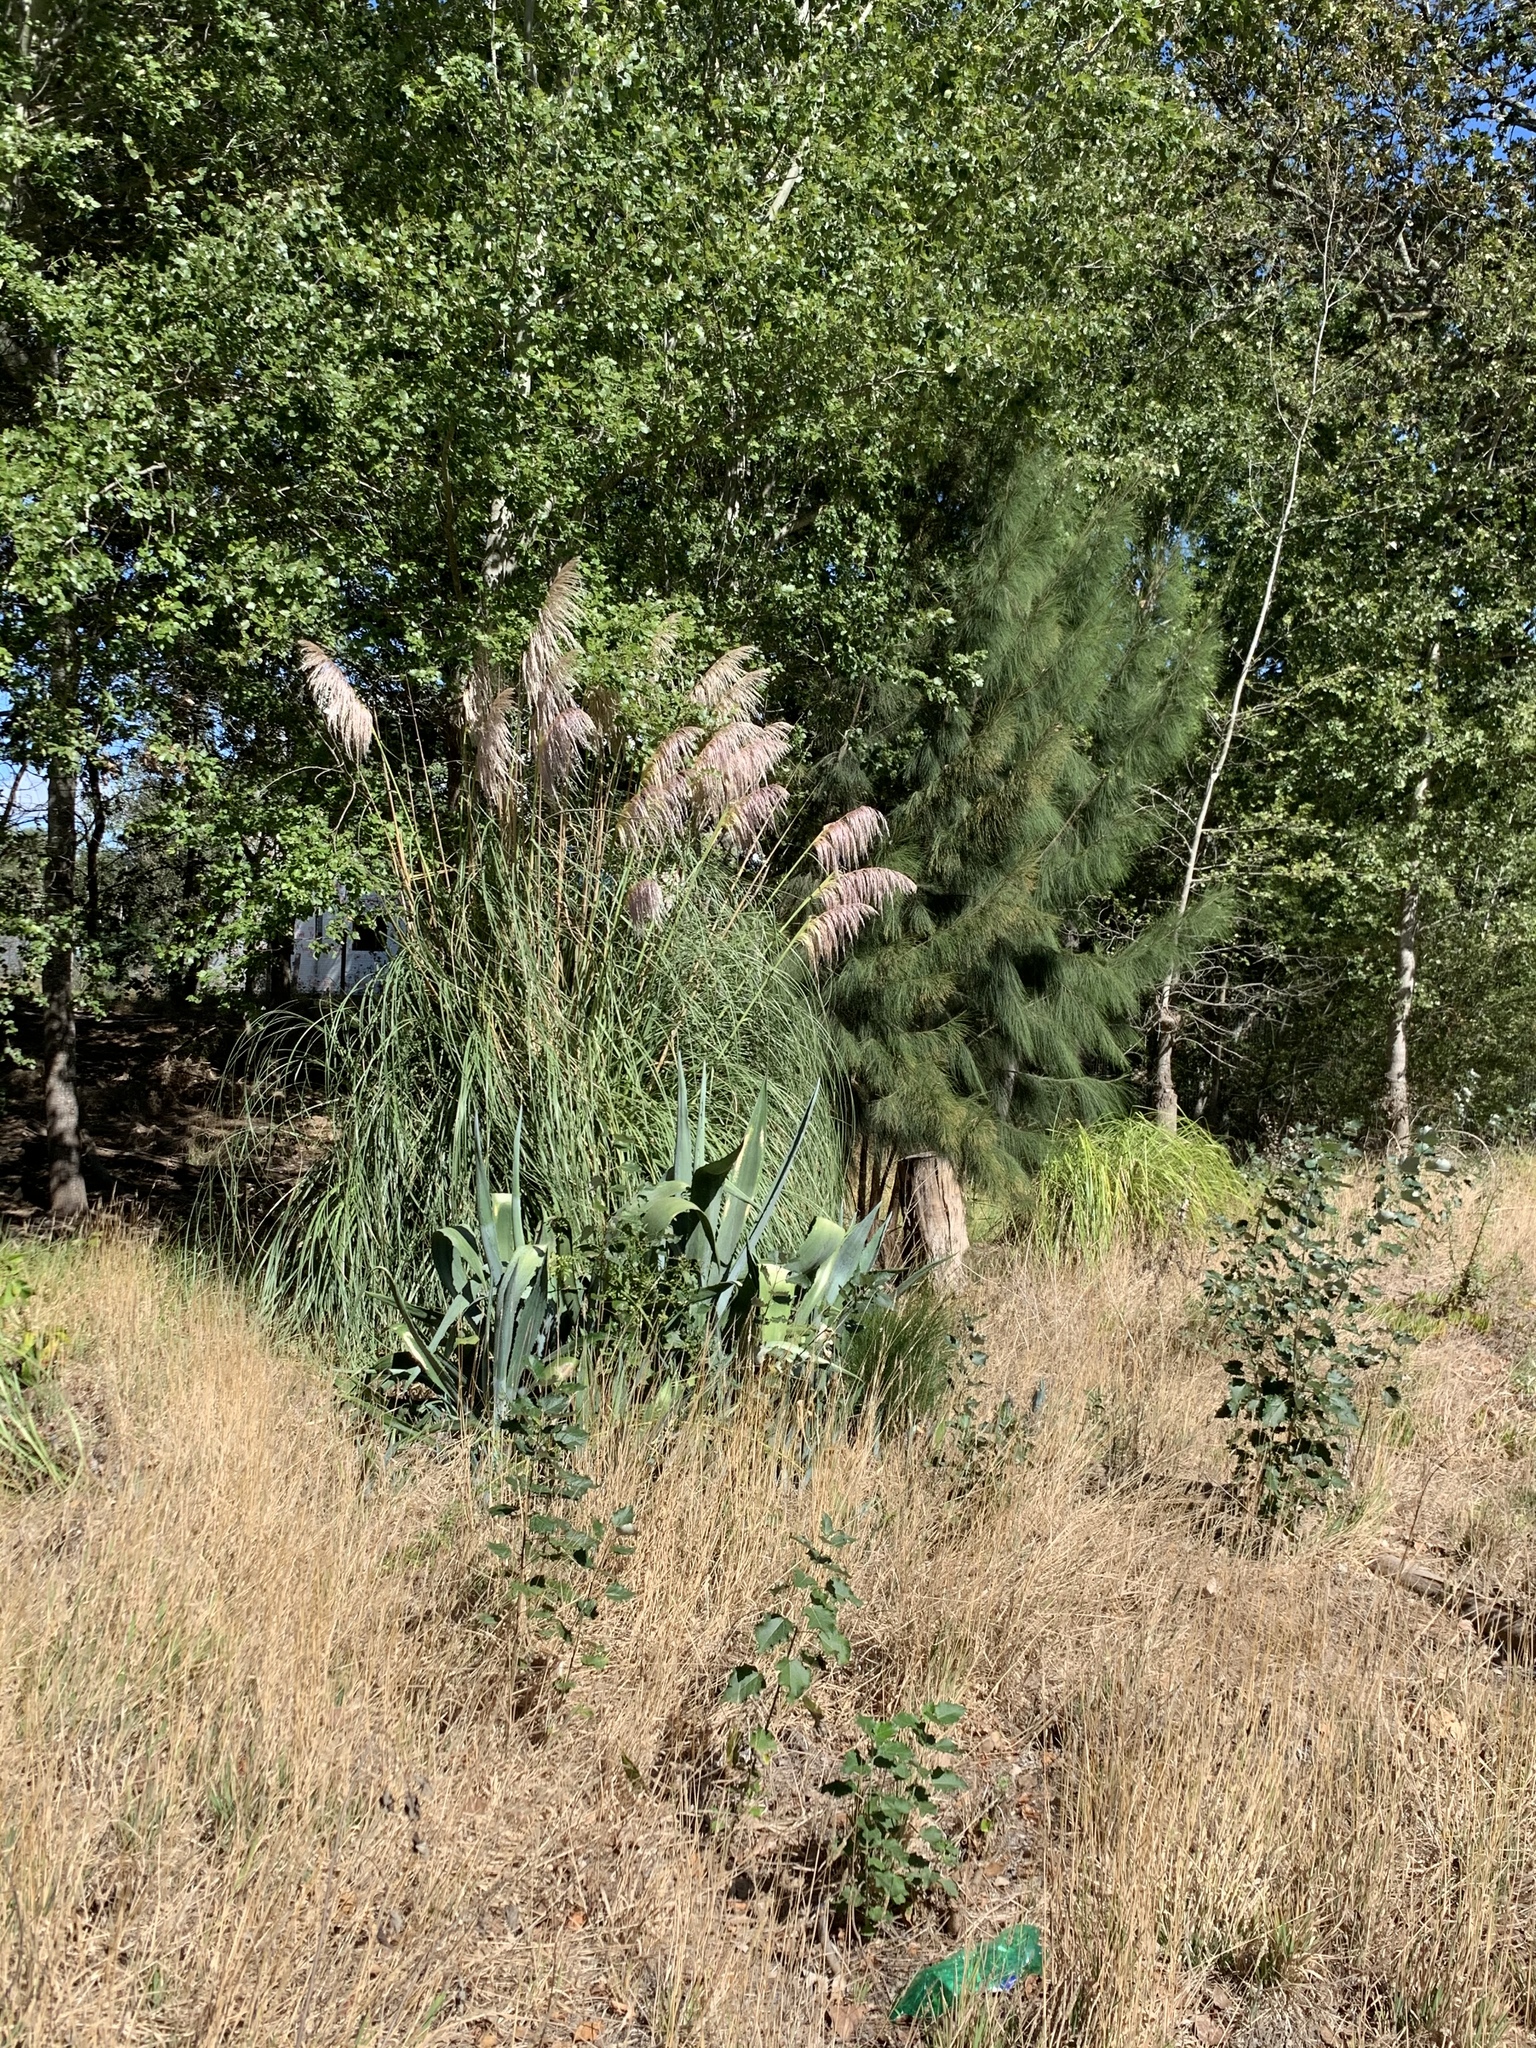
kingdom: Plantae
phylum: Tracheophyta
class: Liliopsida
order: Poales
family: Poaceae
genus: Cortaderia
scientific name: Cortaderia selloana
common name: Uruguayan pampas grass
